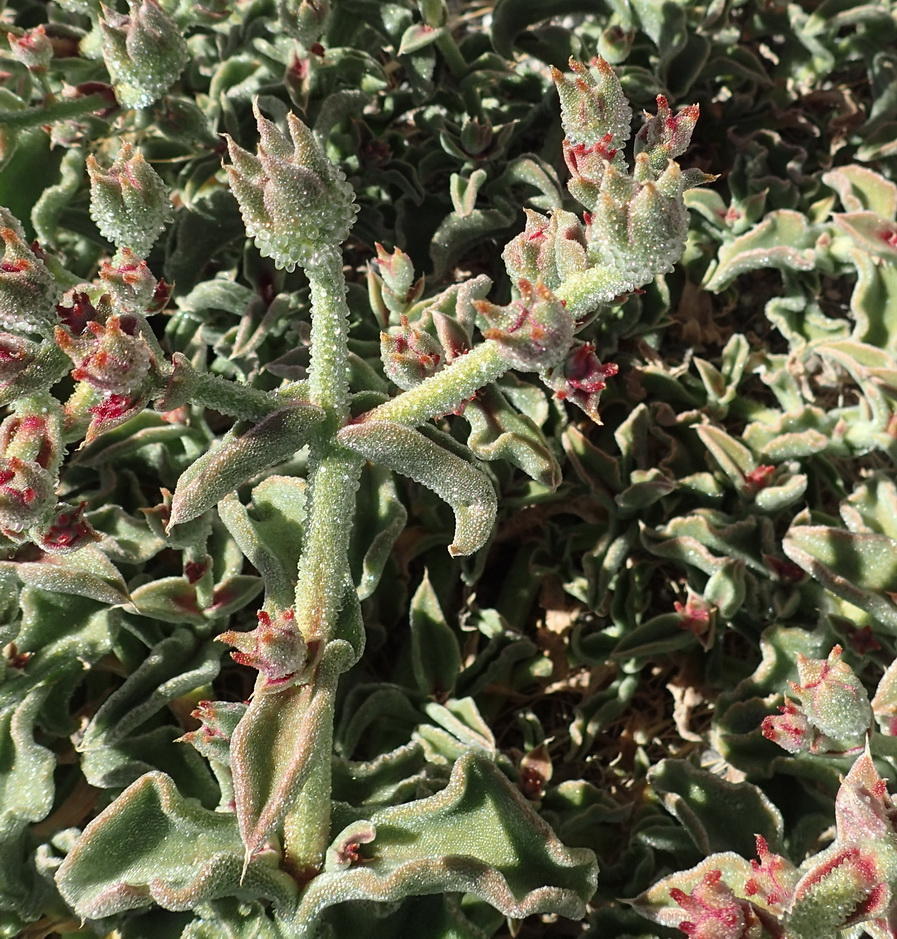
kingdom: Plantae
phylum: Tracheophyta
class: Magnoliopsida
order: Caryophyllales
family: Aizoaceae
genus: Mesembryanthemum
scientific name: Mesembryanthemum crystallinum
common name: Common iceplant
